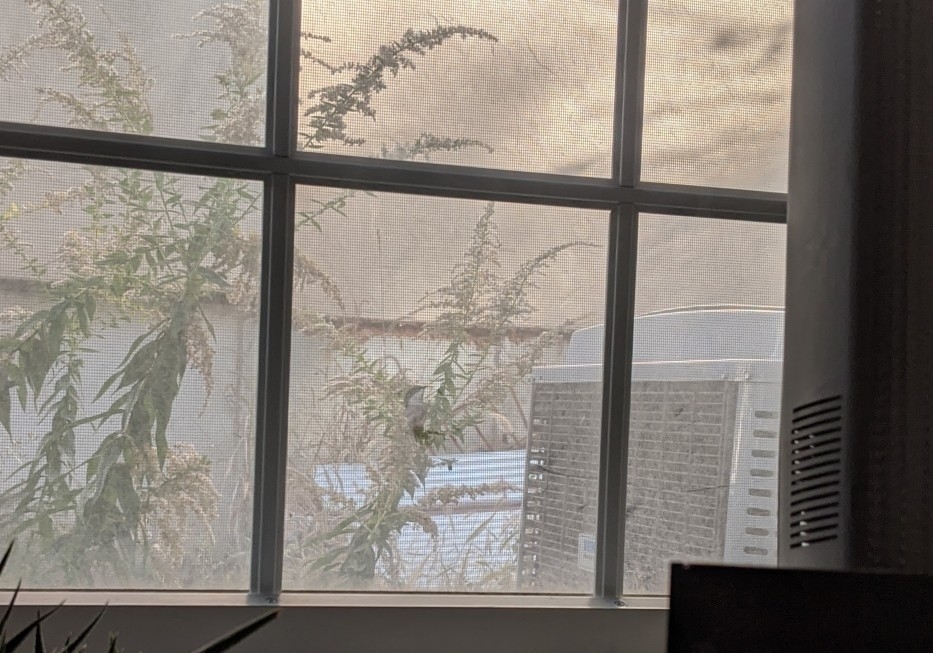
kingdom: Animalia
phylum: Chordata
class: Aves
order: Passeriformes
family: Paridae
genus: Poecile
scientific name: Poecile atricapillus
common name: Black-capped chickadee
